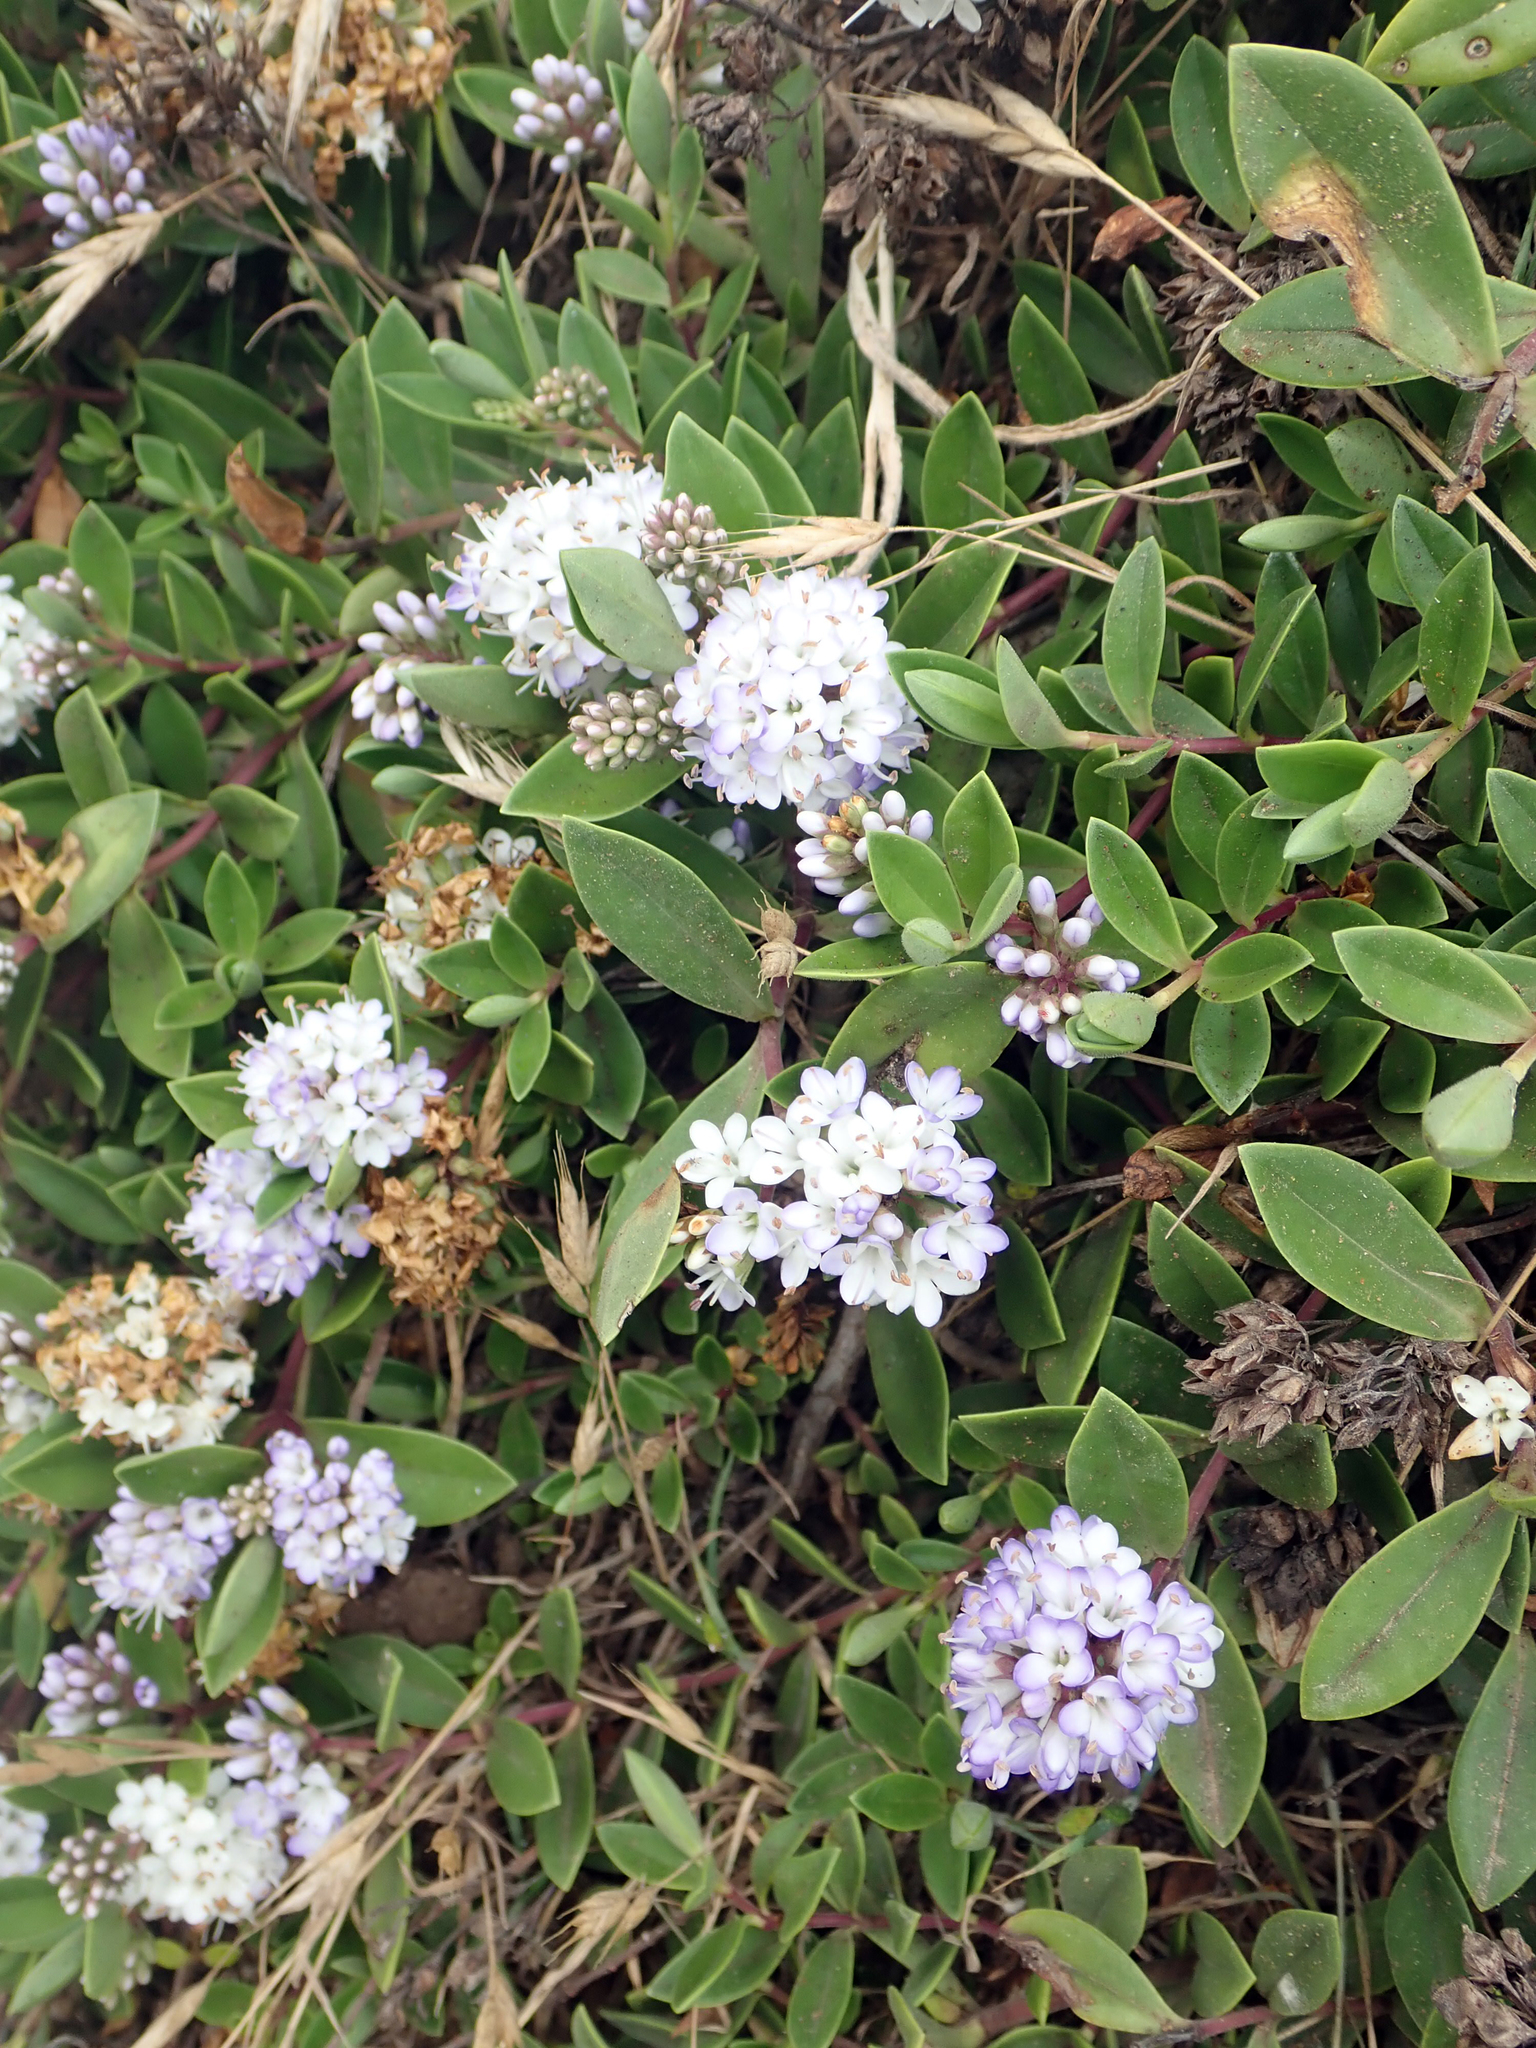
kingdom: Plantae
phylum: Tracheophyta
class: Magnoliopsida
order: Lamiales
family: Plantaginaceae
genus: Veronica
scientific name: Veronica chathamica
